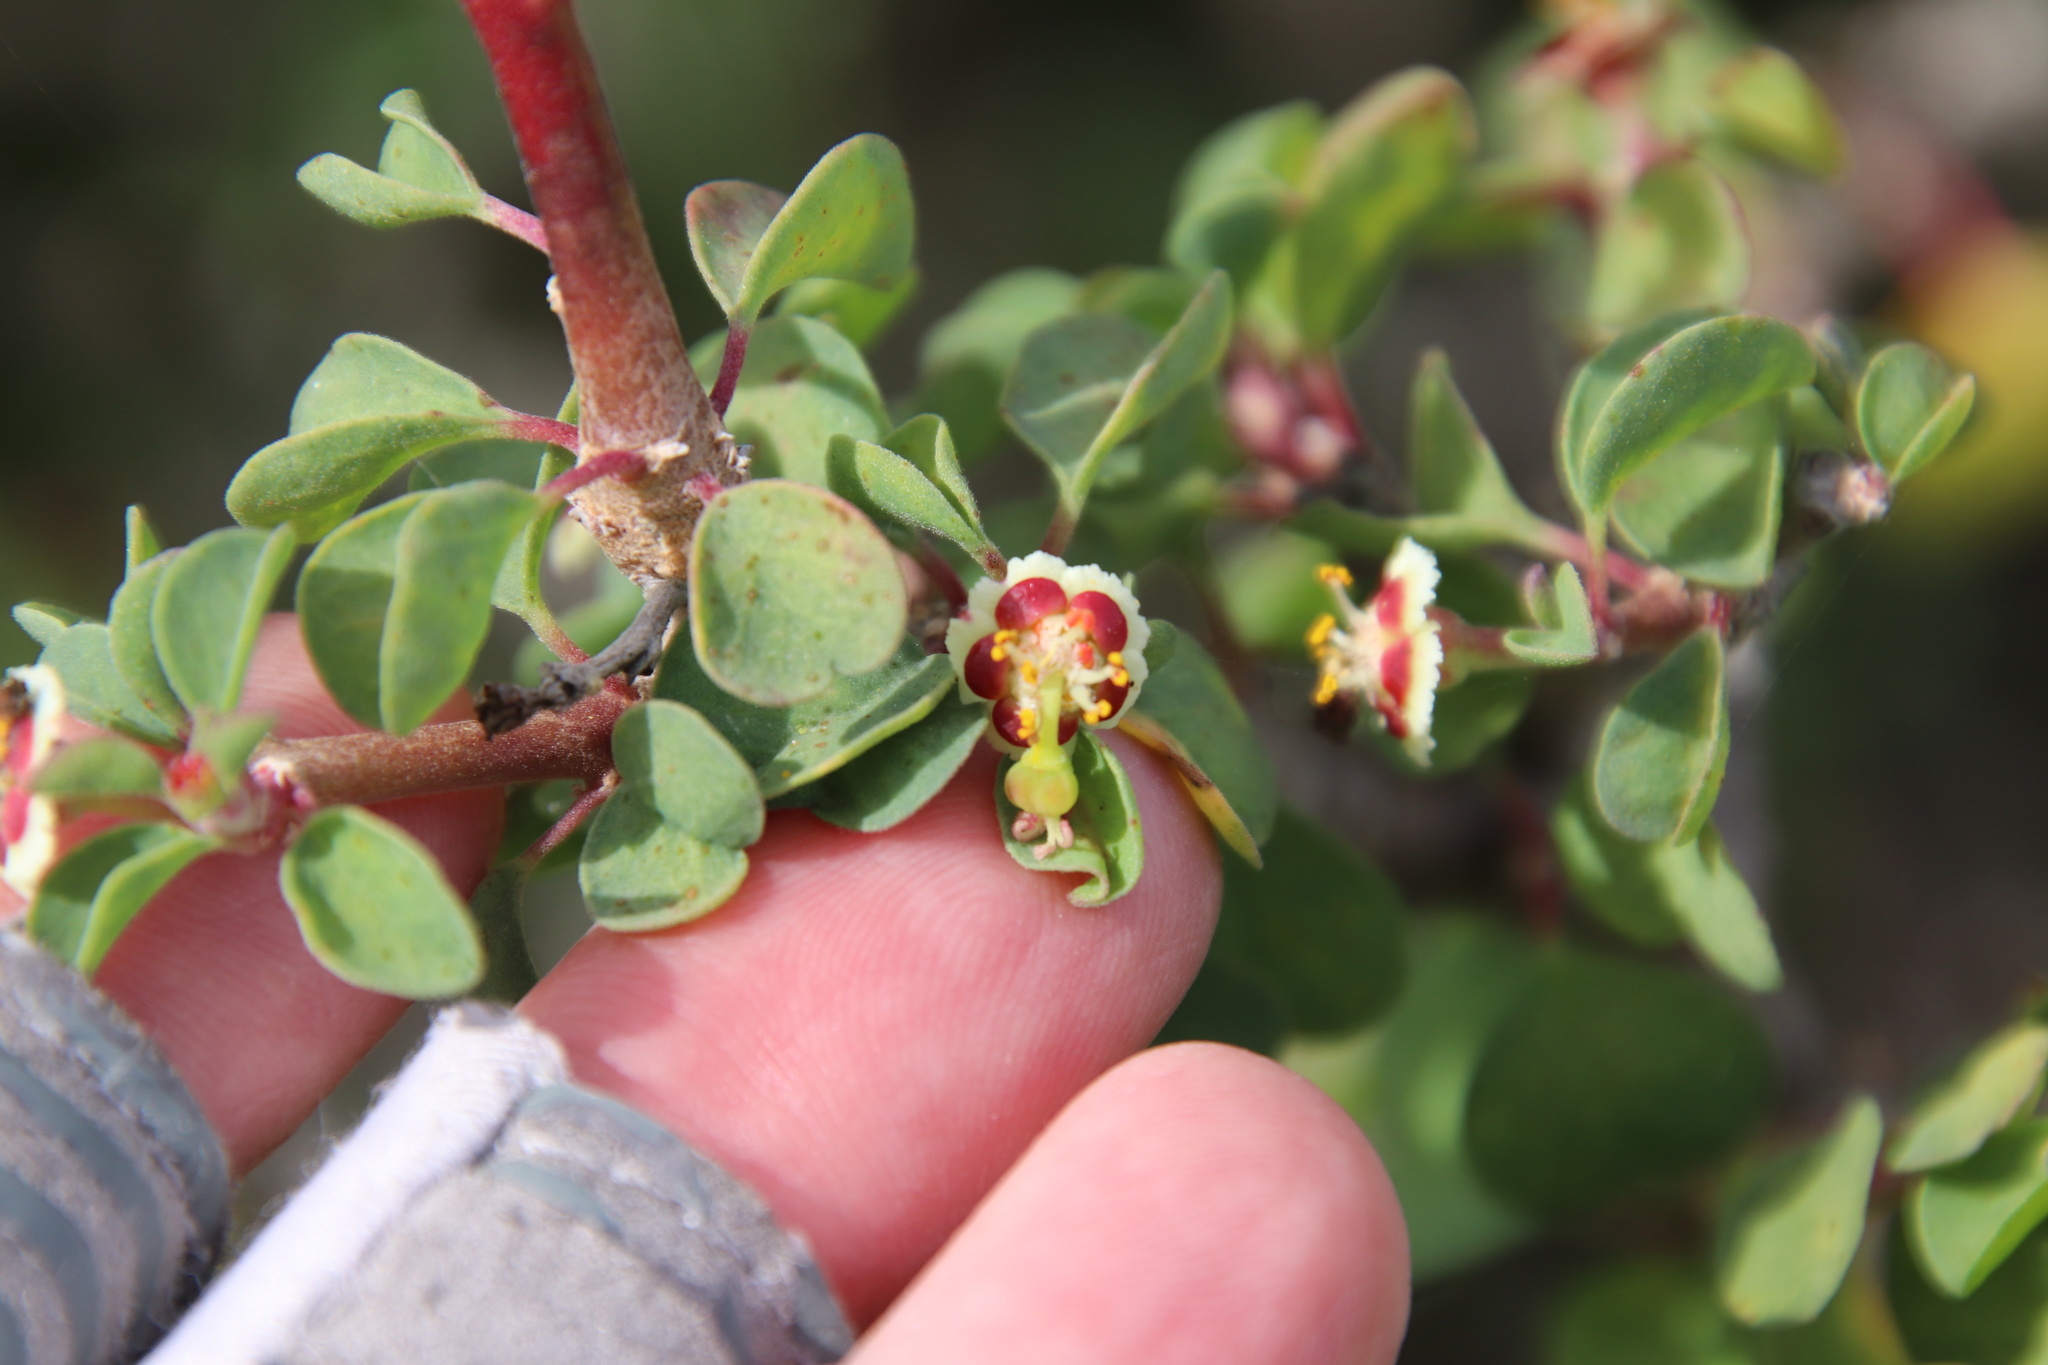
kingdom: Plantae
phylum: Tracheophyta
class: Magnoliopsida
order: Malpighiales
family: Euphorbiaceae
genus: Euphorbia
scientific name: Euphorbia misera
